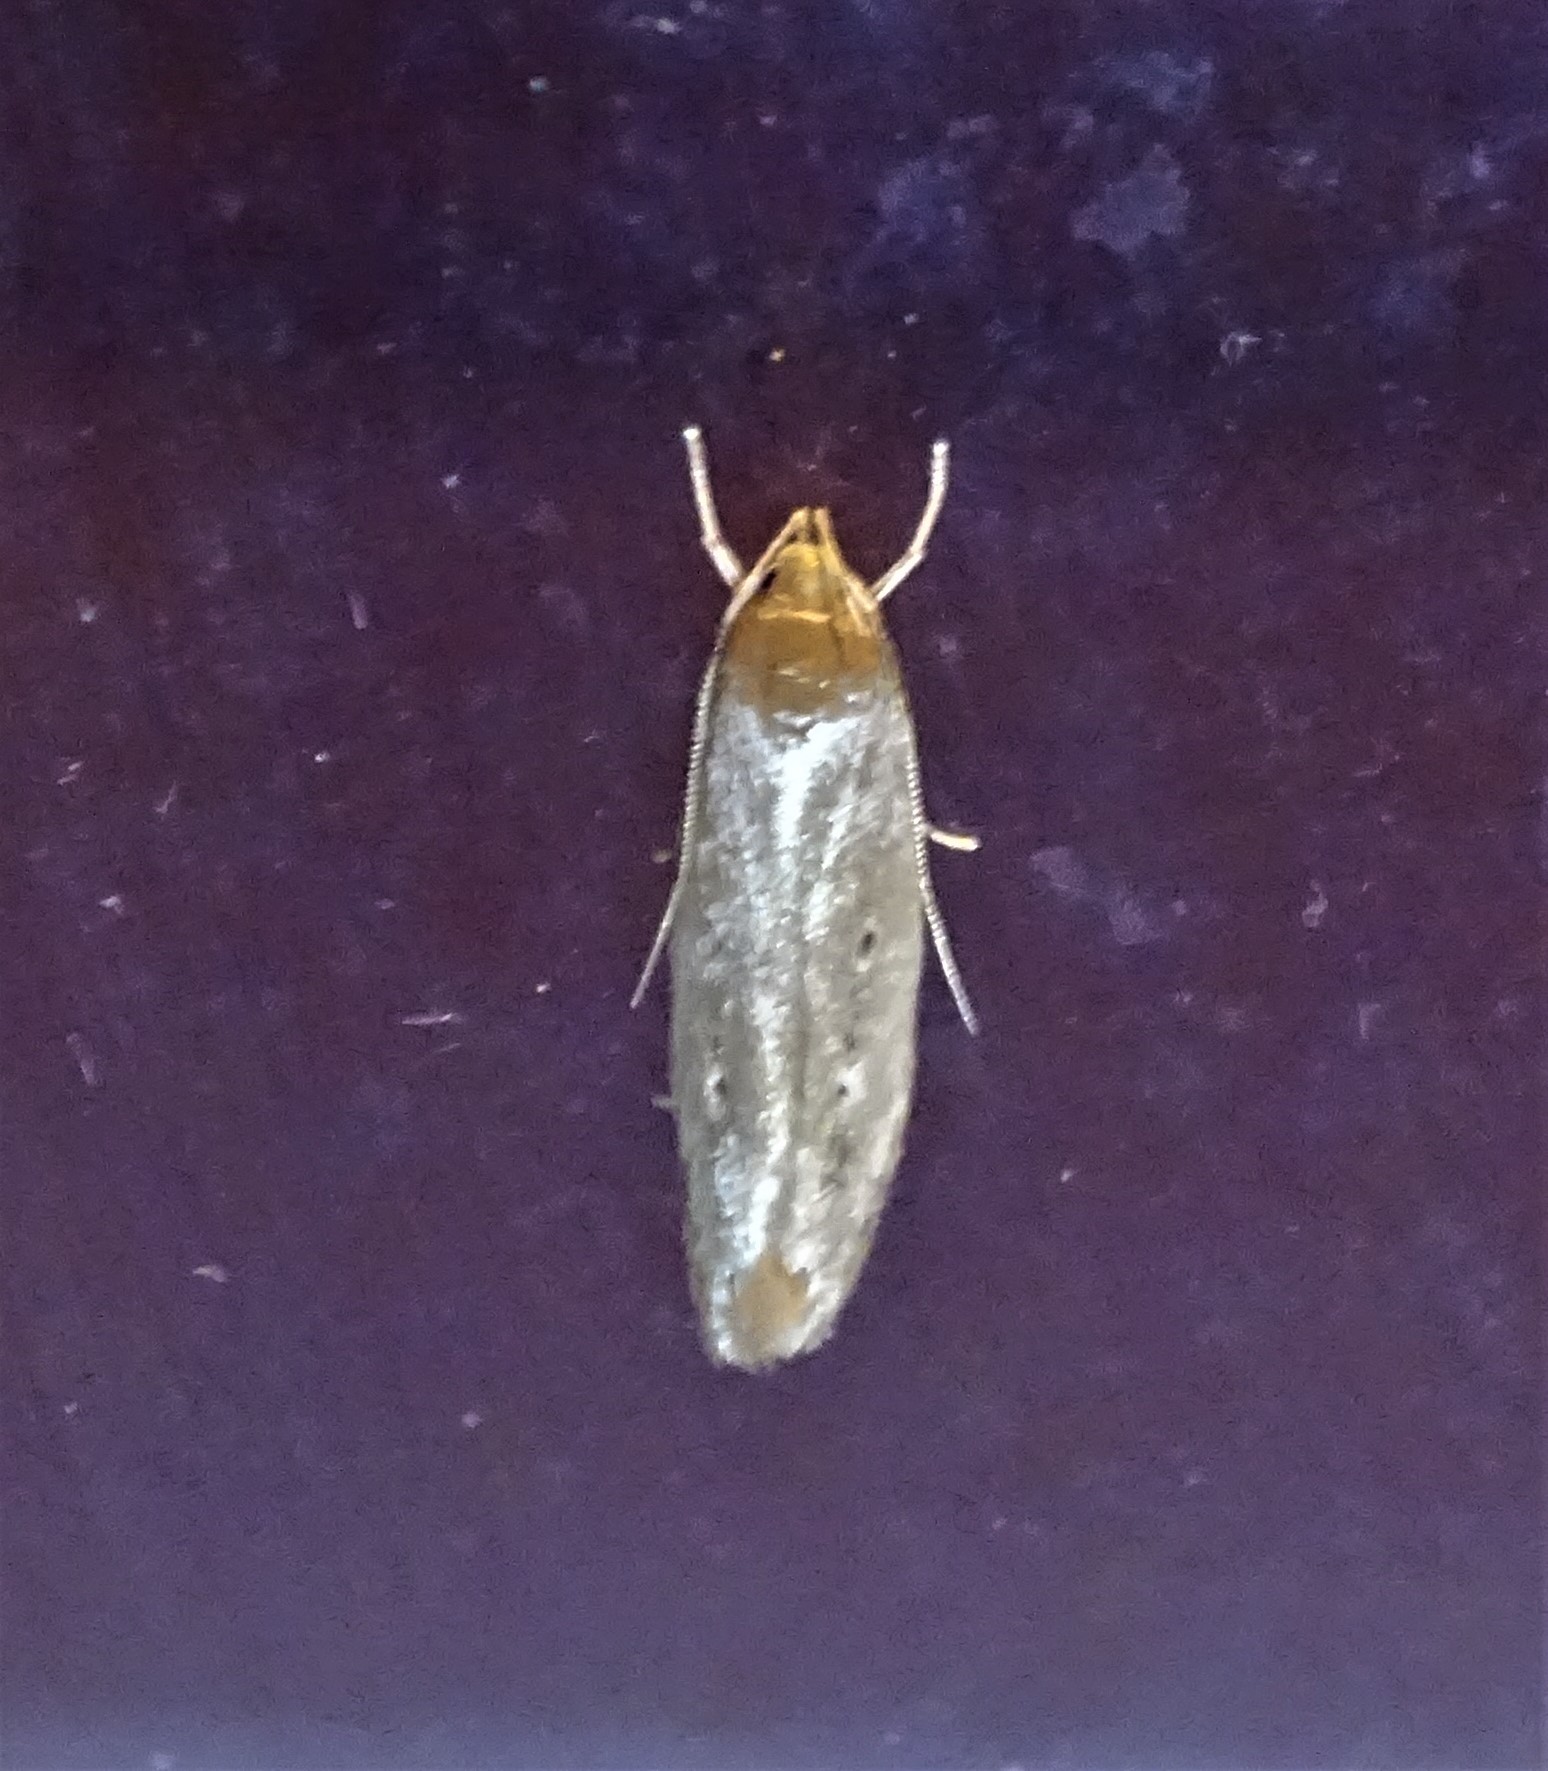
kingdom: Animalia
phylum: Arthropoda
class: Insecta
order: Lepidoptera
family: Cosmopterigidae
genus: Limnaecia
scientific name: Limnaecia phragmitella
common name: Bulrush cosmet
